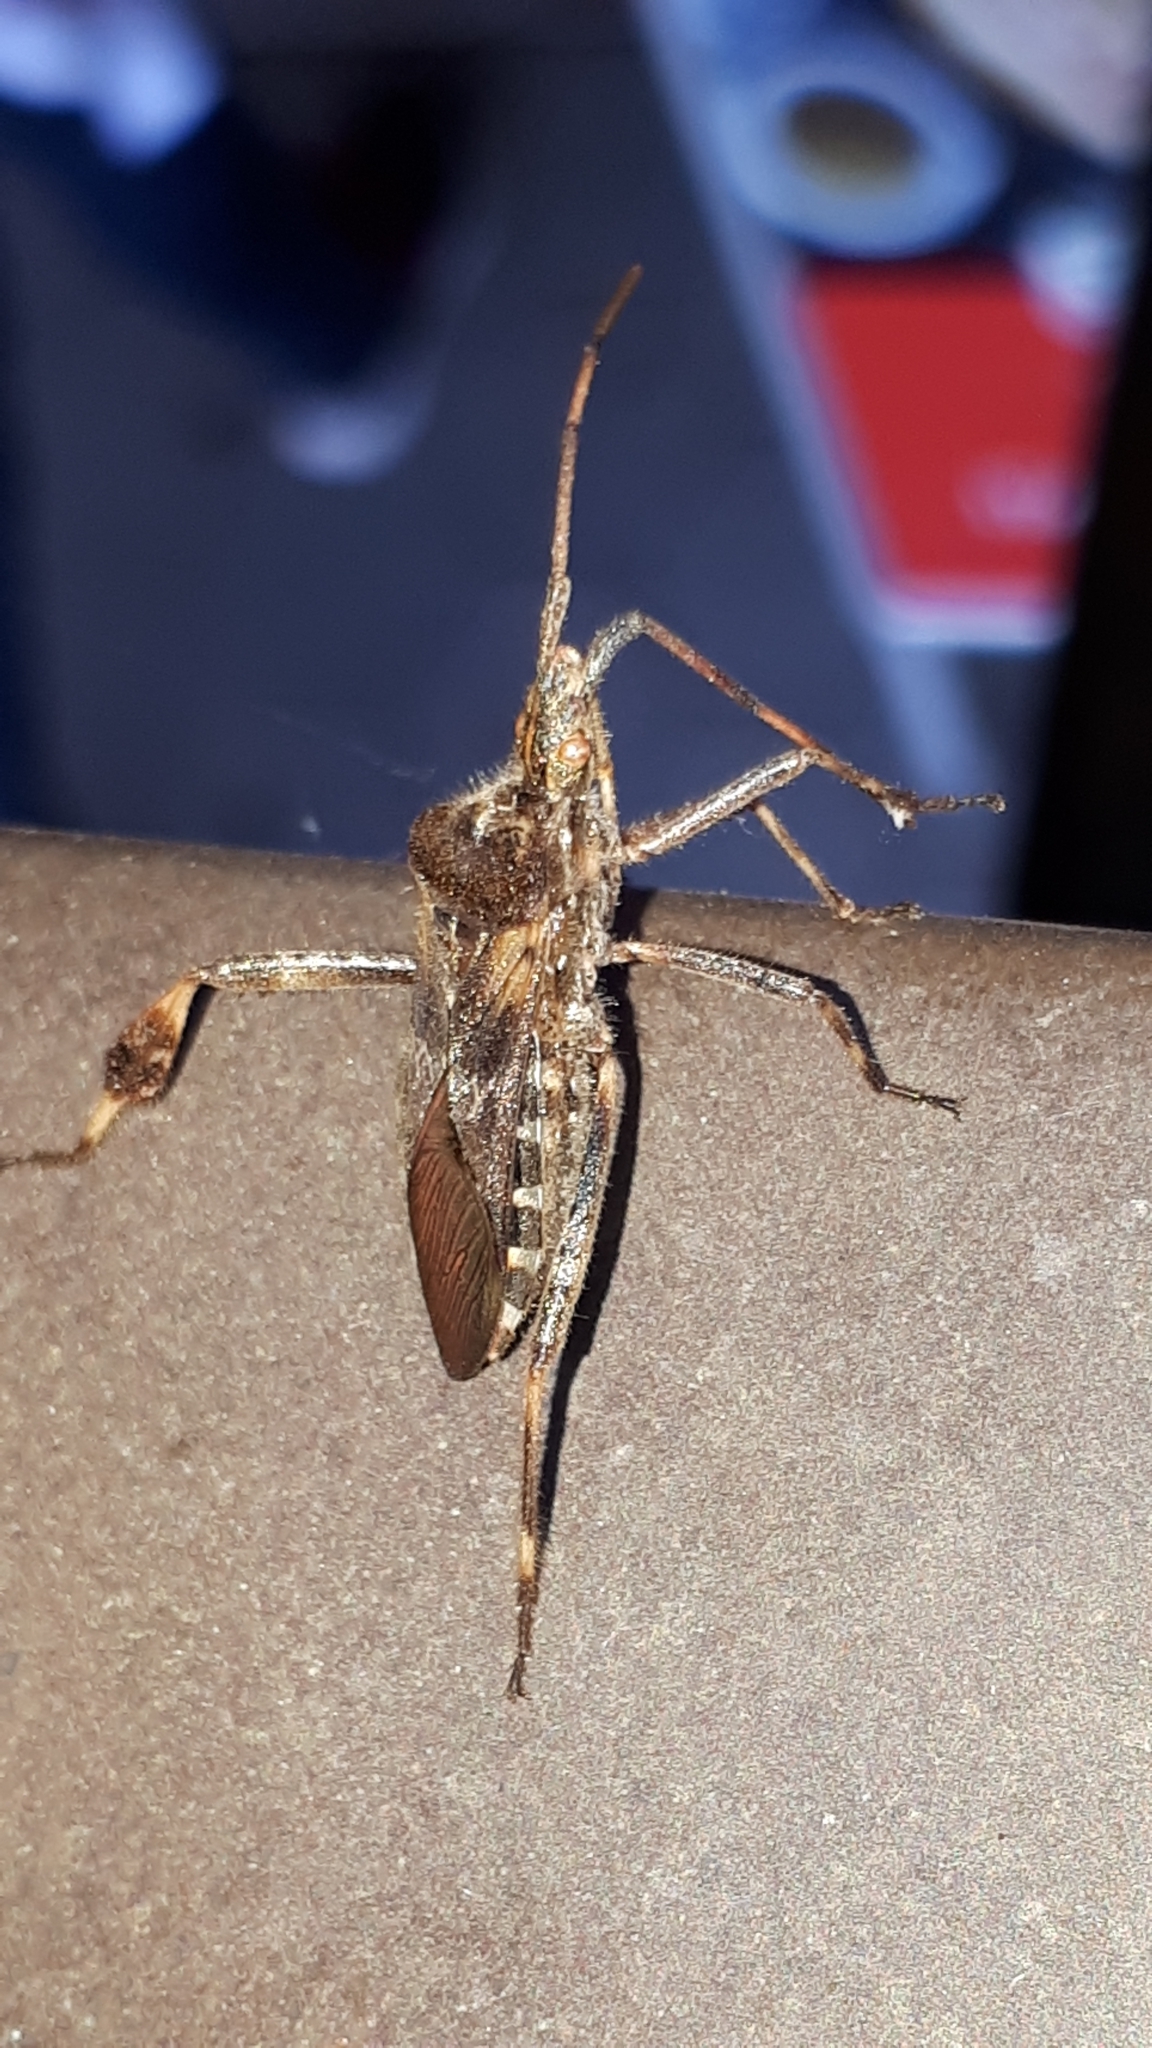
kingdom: Animalia
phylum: Arthropoda
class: Insecta
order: Hemiptera
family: Coreidae
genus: Leptoglossus
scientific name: Leptoglossus occidentalis
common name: Western conifer-seed bug
